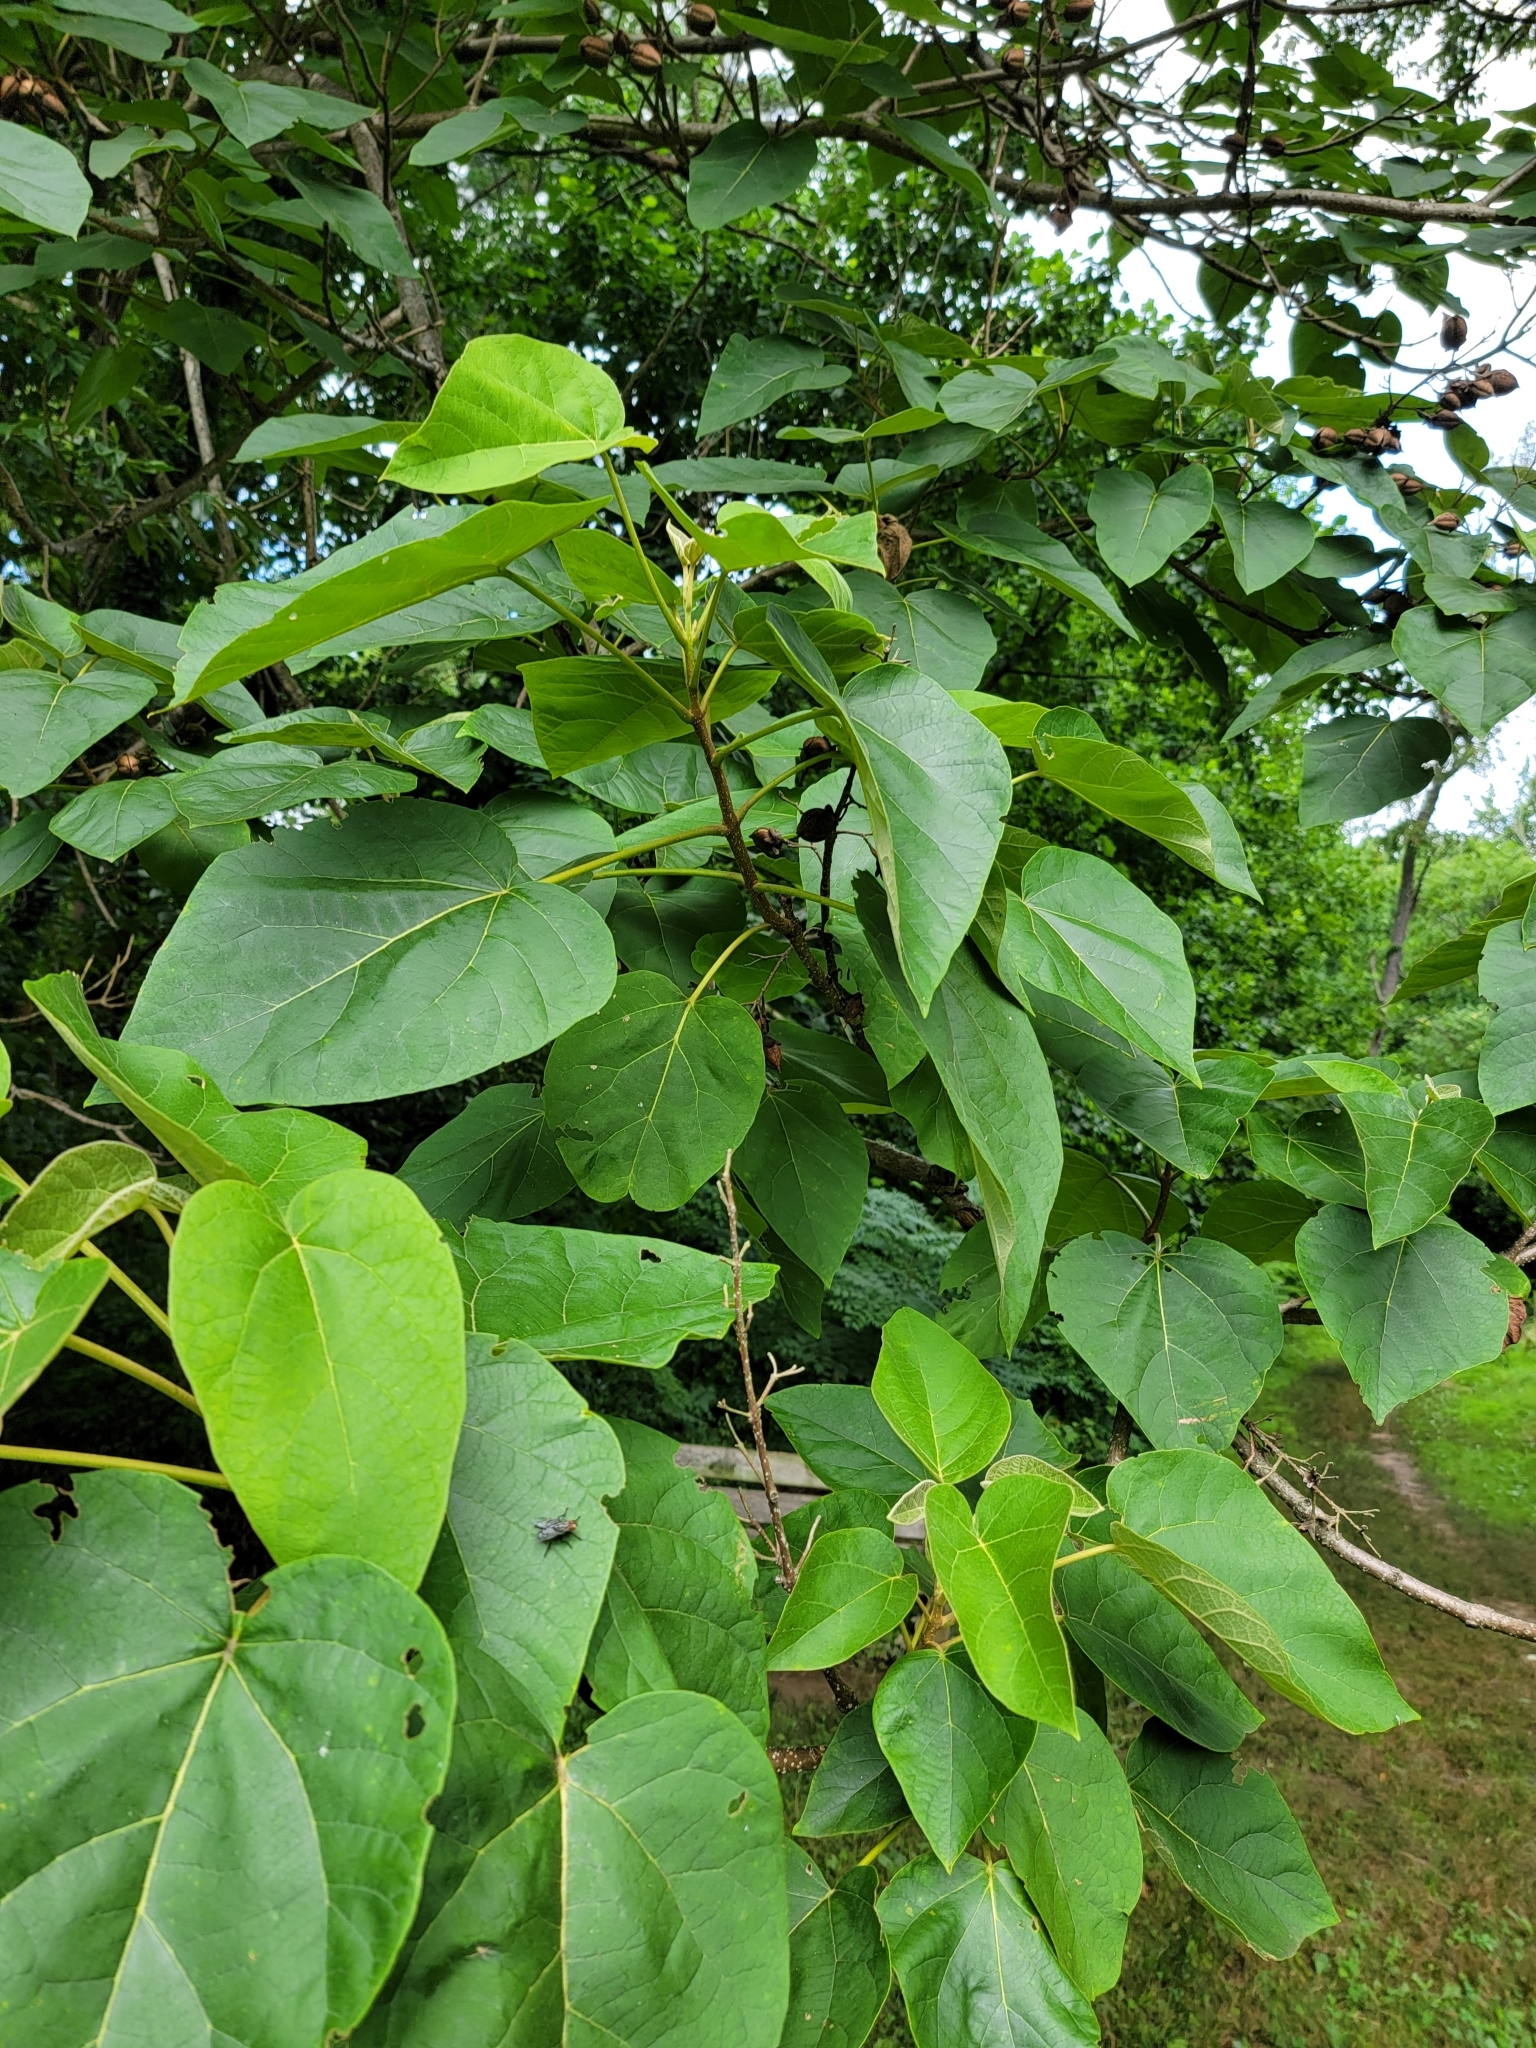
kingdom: Plantae
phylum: Tracheophyta
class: Magnoliopsida
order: Lamiales
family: Paulowniaceae
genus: Paulownia
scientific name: Paulownia tomentosa
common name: Foxglove-tree
